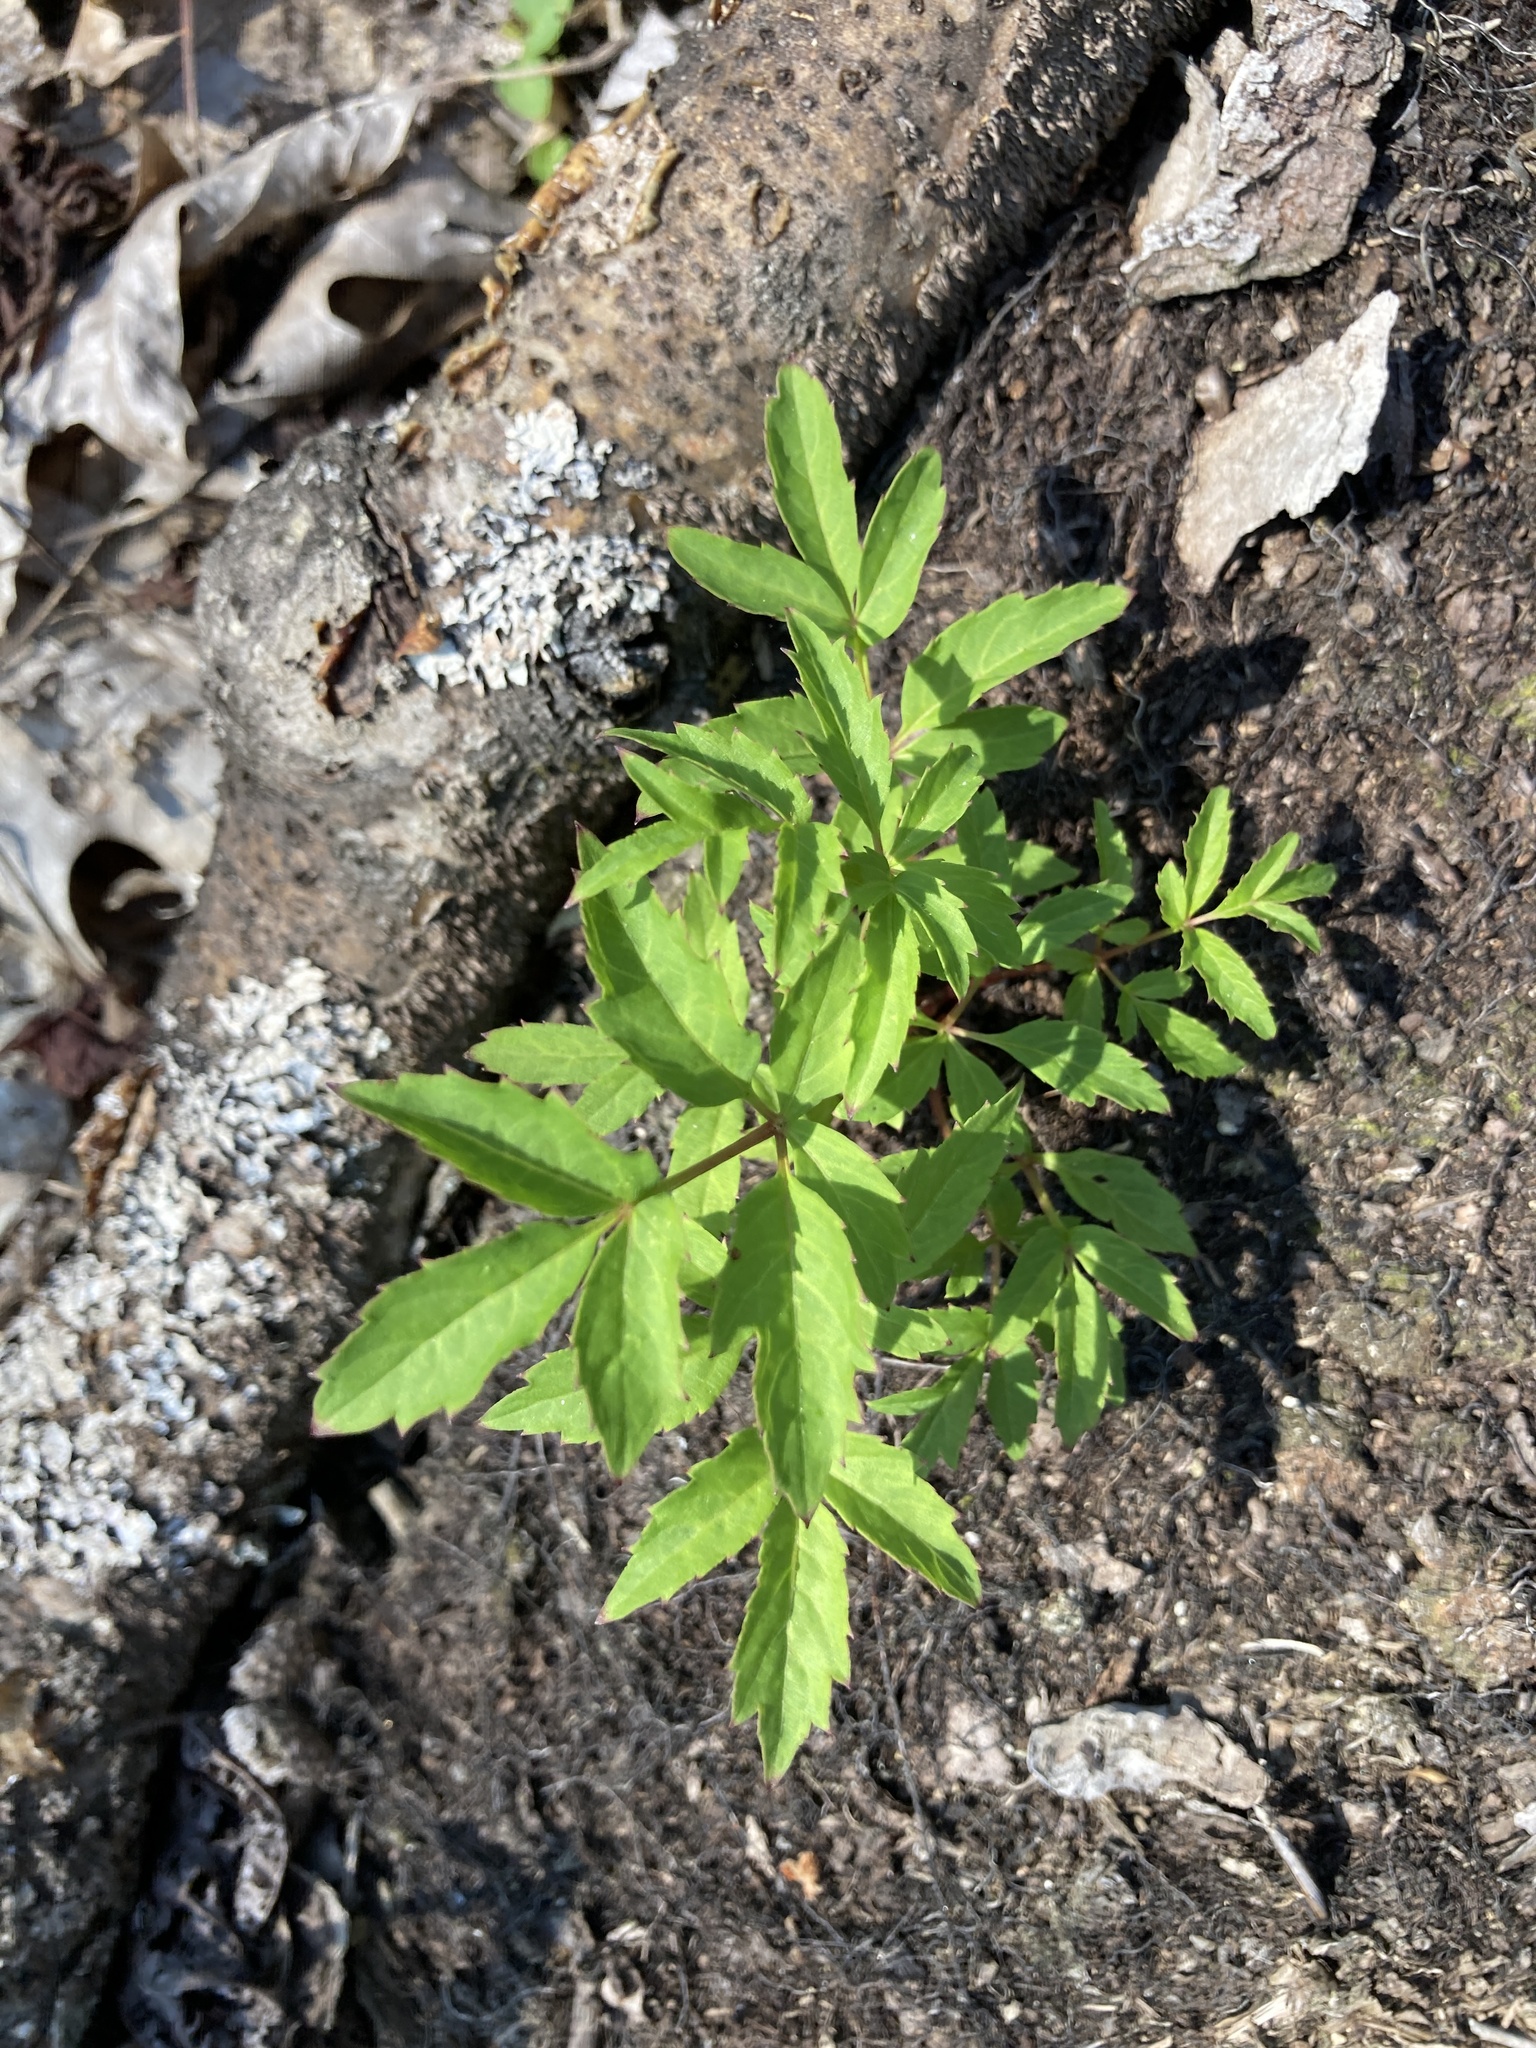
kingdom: Plantae
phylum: Tracheophyta
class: Magnoliopsida
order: Apiales
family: Araliaceae
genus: Aralia
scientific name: Aralia hispida
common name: Bristly sarsaparilla
